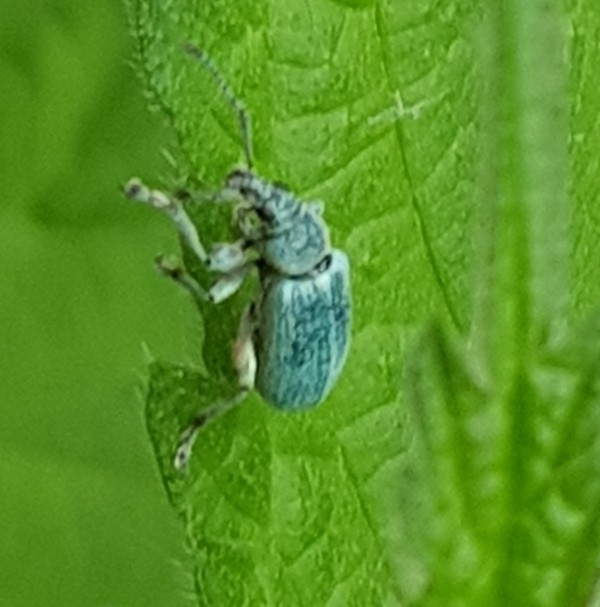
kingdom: Animalia
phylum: Arthropoda
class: Insecta
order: Coleoptera
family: Curculionidae
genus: Phyllobius
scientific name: Phyllobius pomaceus
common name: Green nettle weevil
